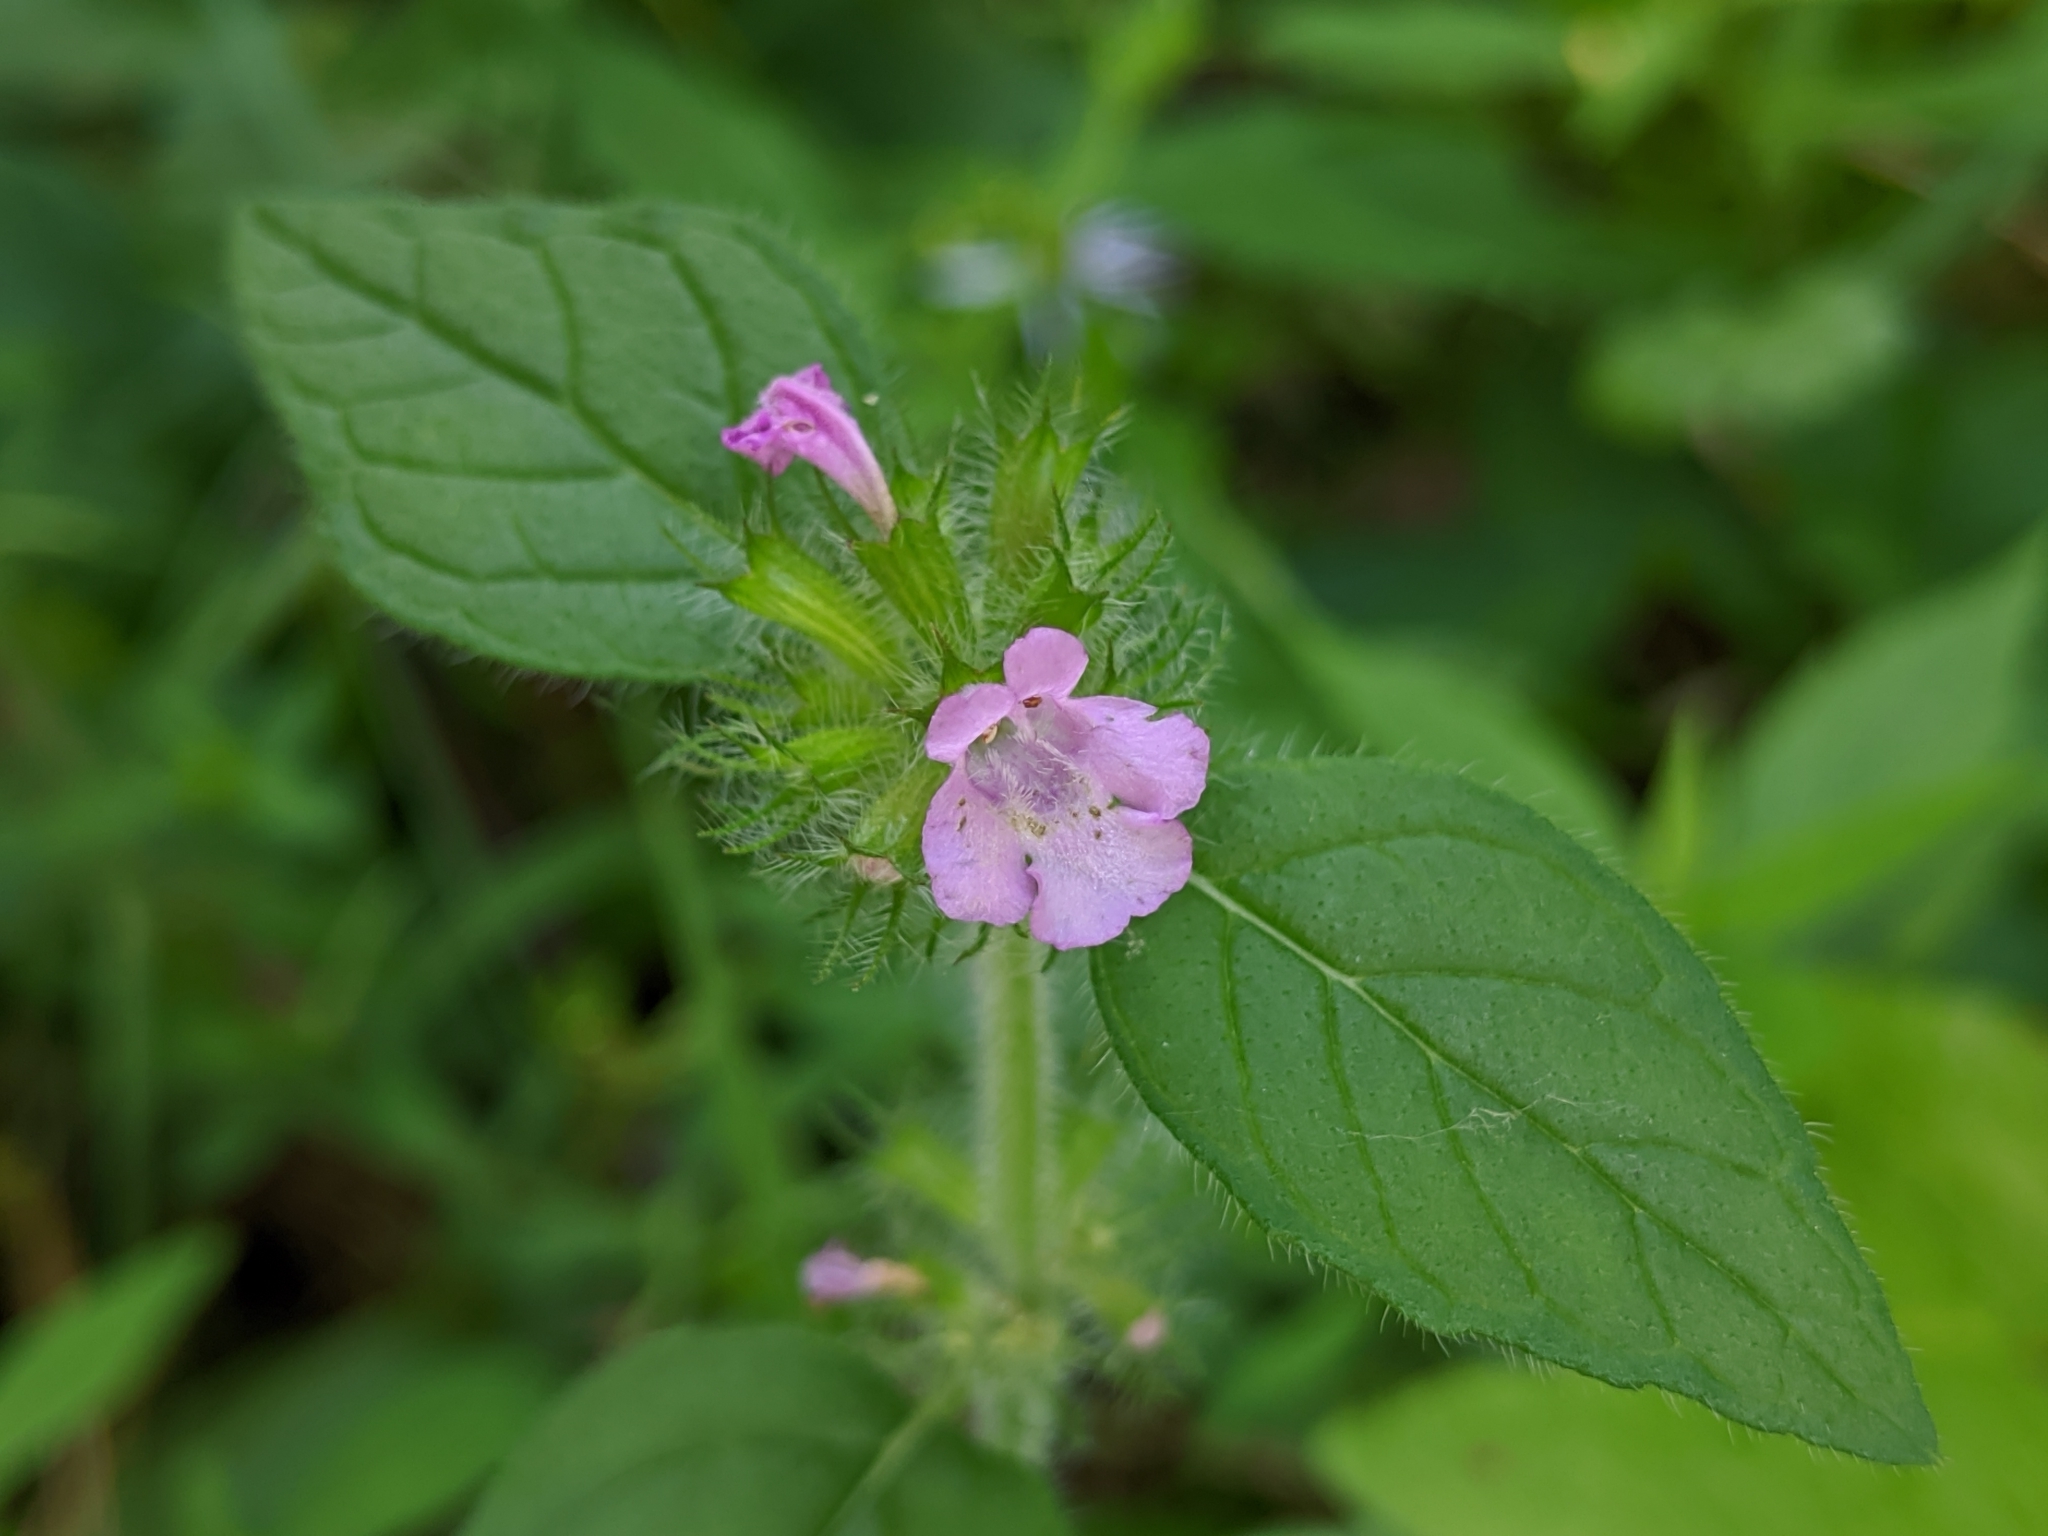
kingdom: Plantae
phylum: Tracheophyta
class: Magnoliopsida
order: Lamiales
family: Lamiaceae
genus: Clinopodium
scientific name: Clinopodium vulgare
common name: Wild basil
